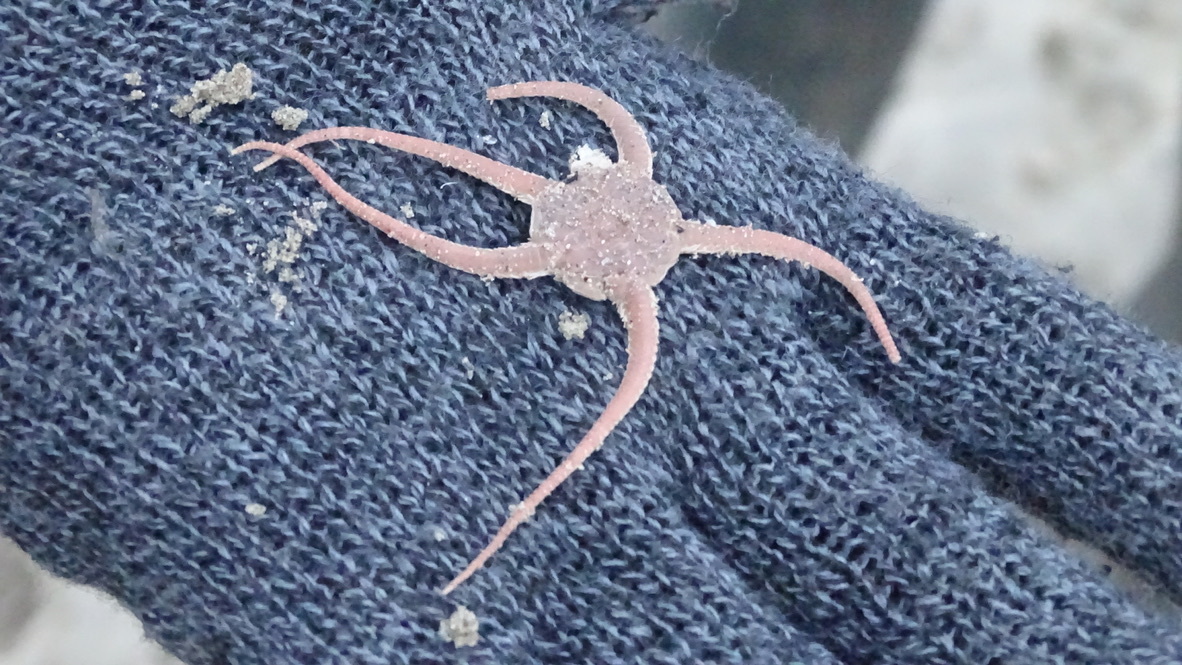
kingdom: Animalia
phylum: Echinodermata
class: Ophiuroidea
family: Ophiuridae
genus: Ophiura
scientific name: Ophiura ophiura
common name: Serpent star
